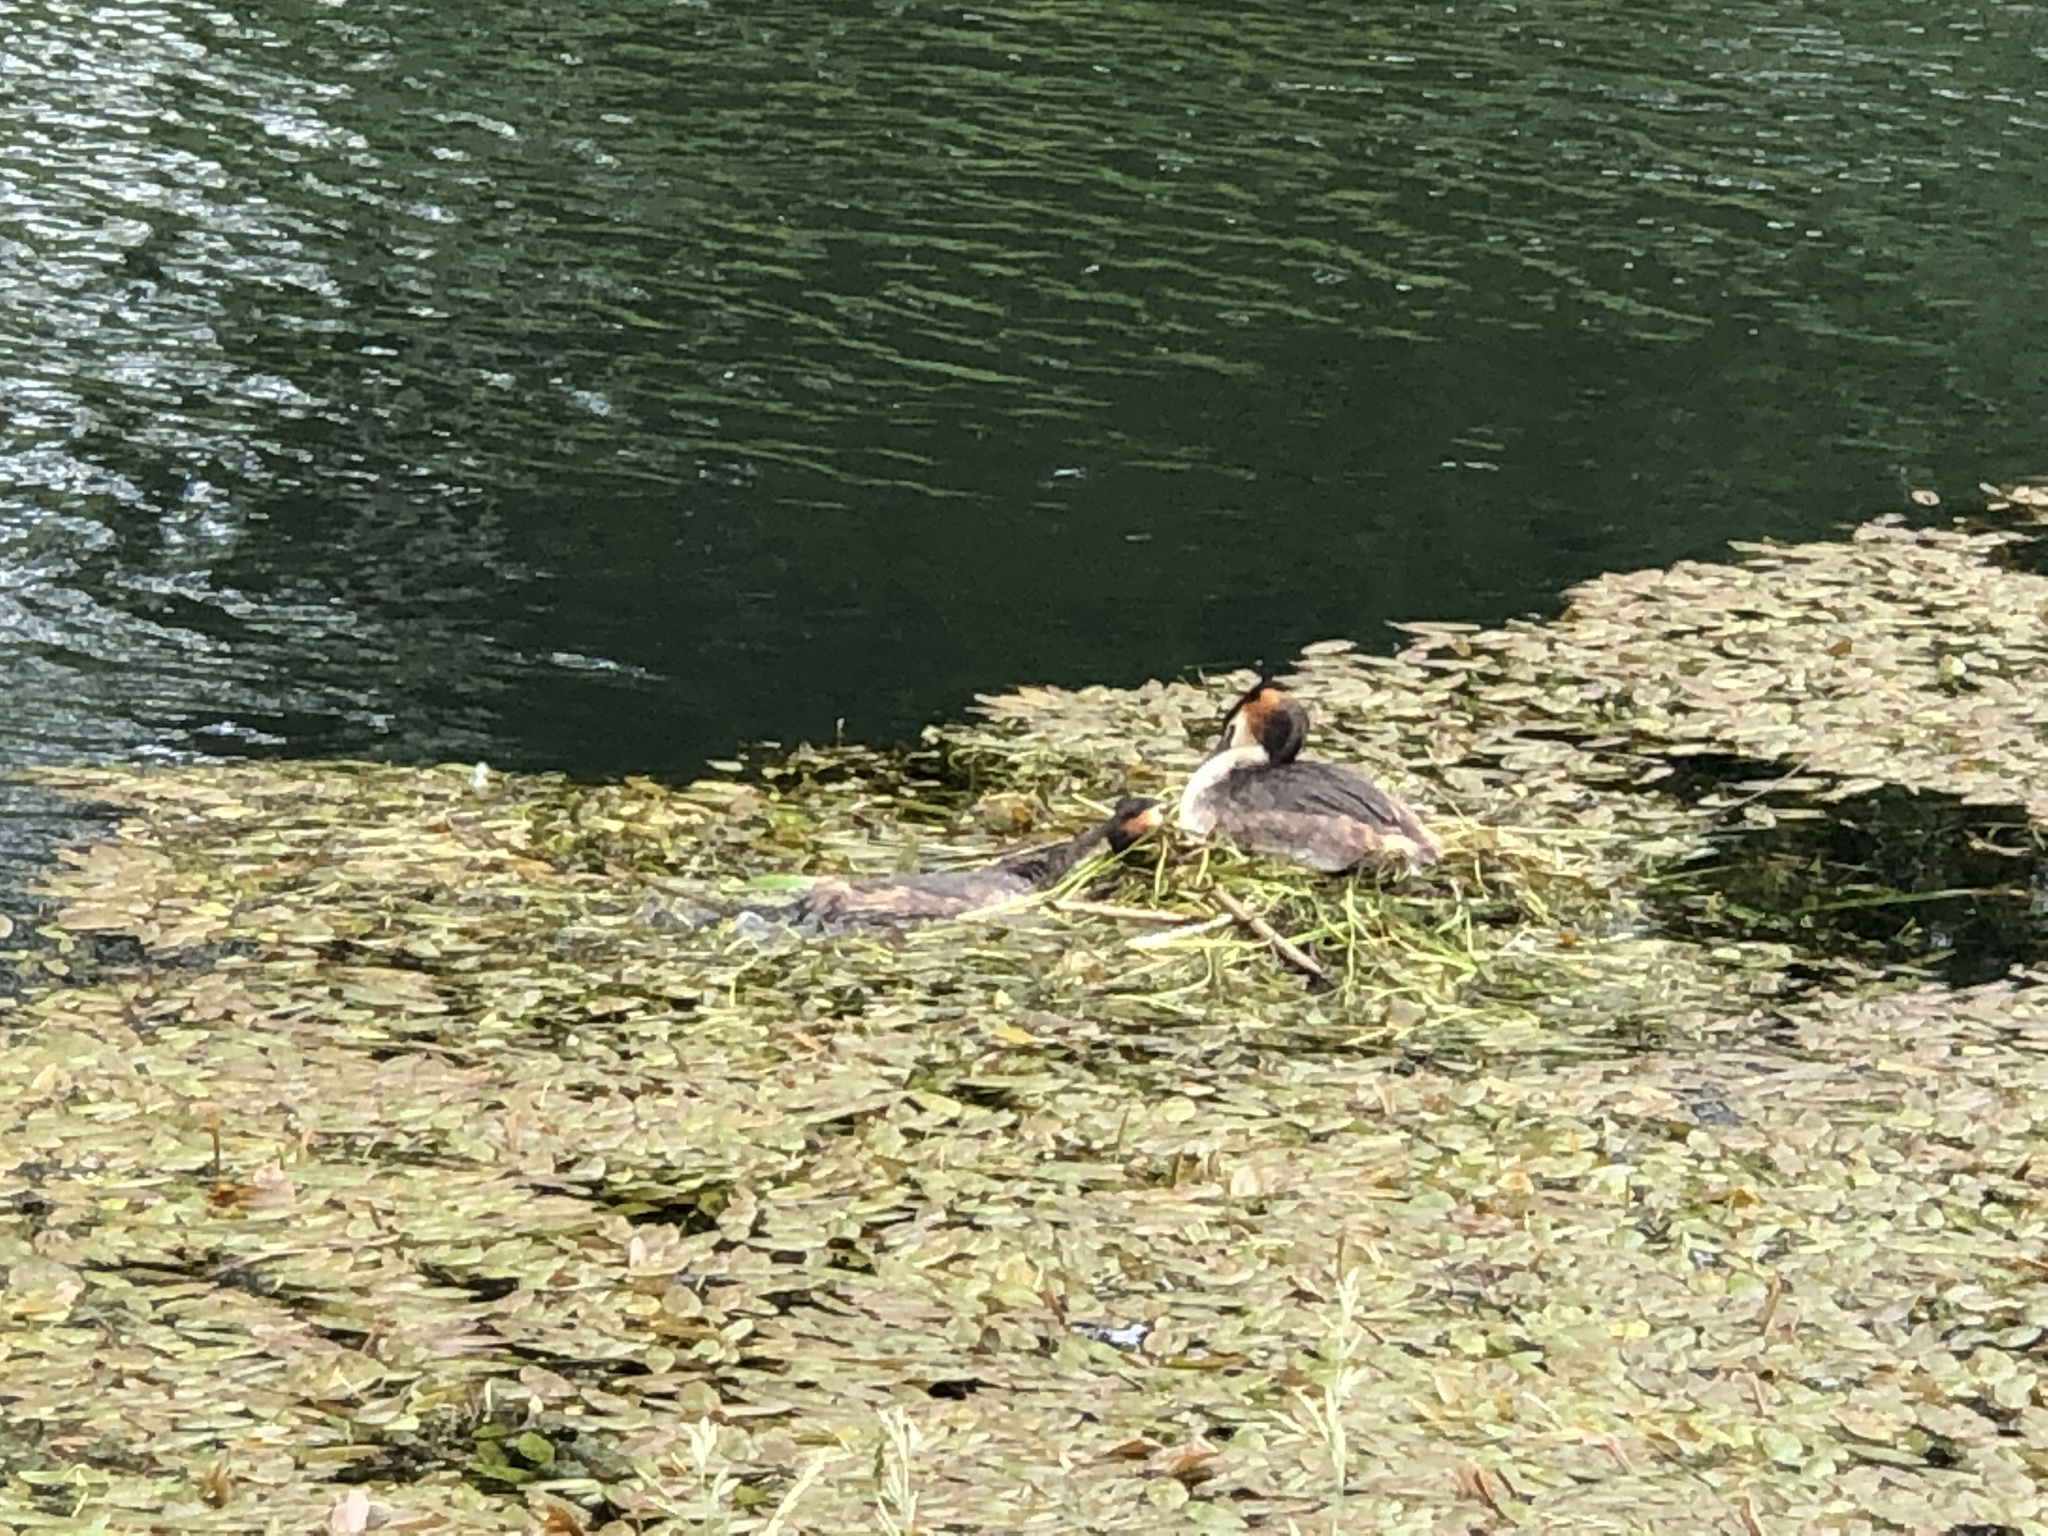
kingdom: Animalia
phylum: Chordata
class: Aves
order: Podicipediformes
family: Podicipedidae
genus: Podiceps
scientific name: Podiceps cristatus
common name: Great crested grebe
